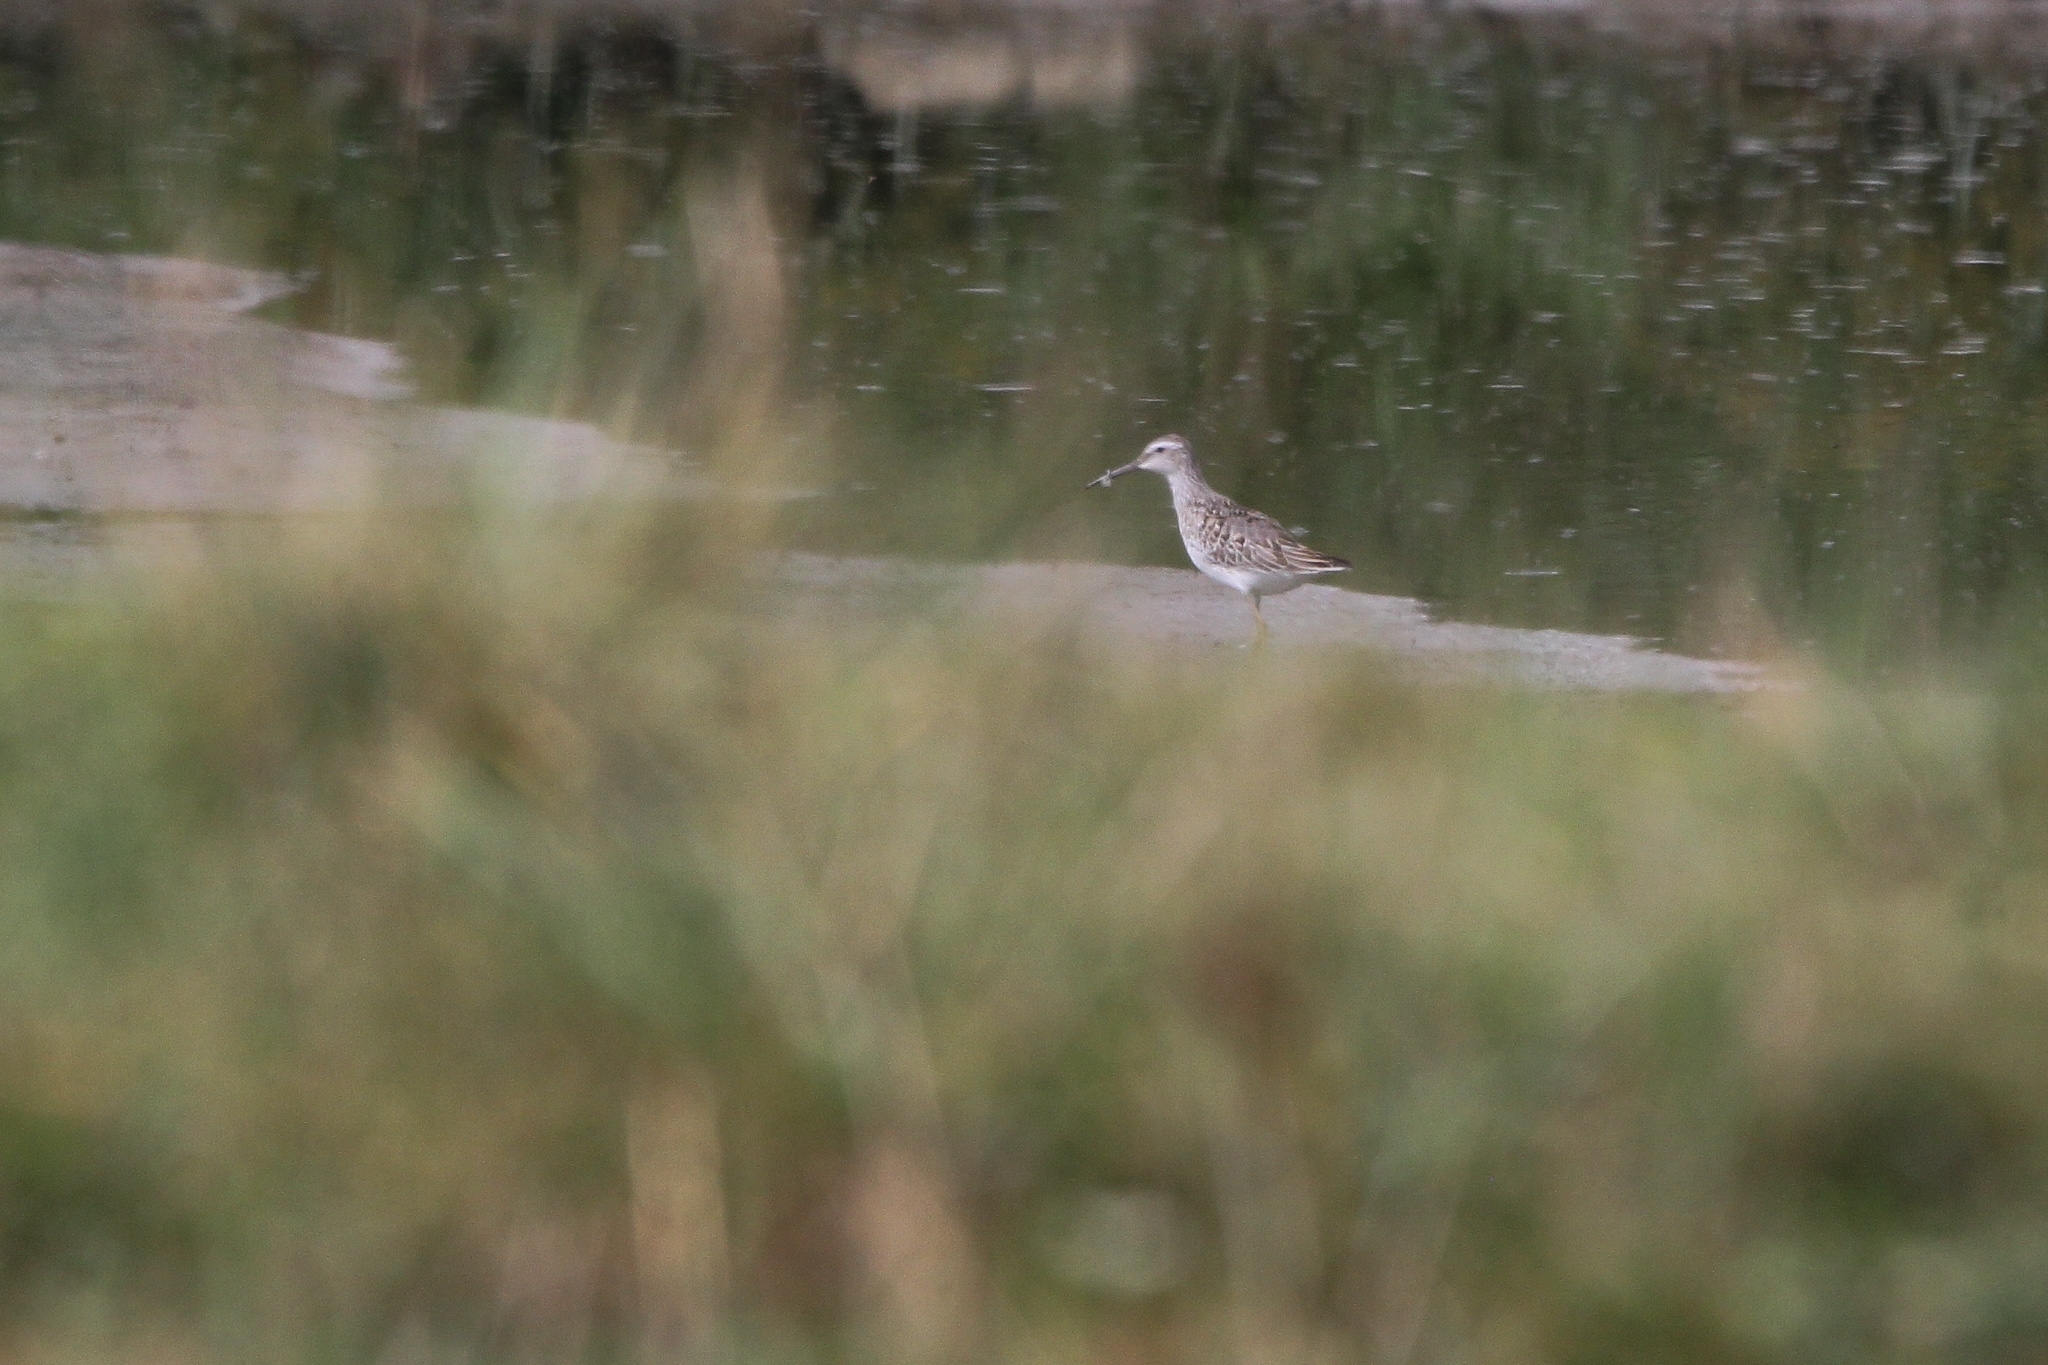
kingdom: Animalia
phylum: Chordata
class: Aves
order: Charadriiformes
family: Scolopacidae
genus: Calidris
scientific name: Calidris himantopus
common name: Stilt sandpiper
